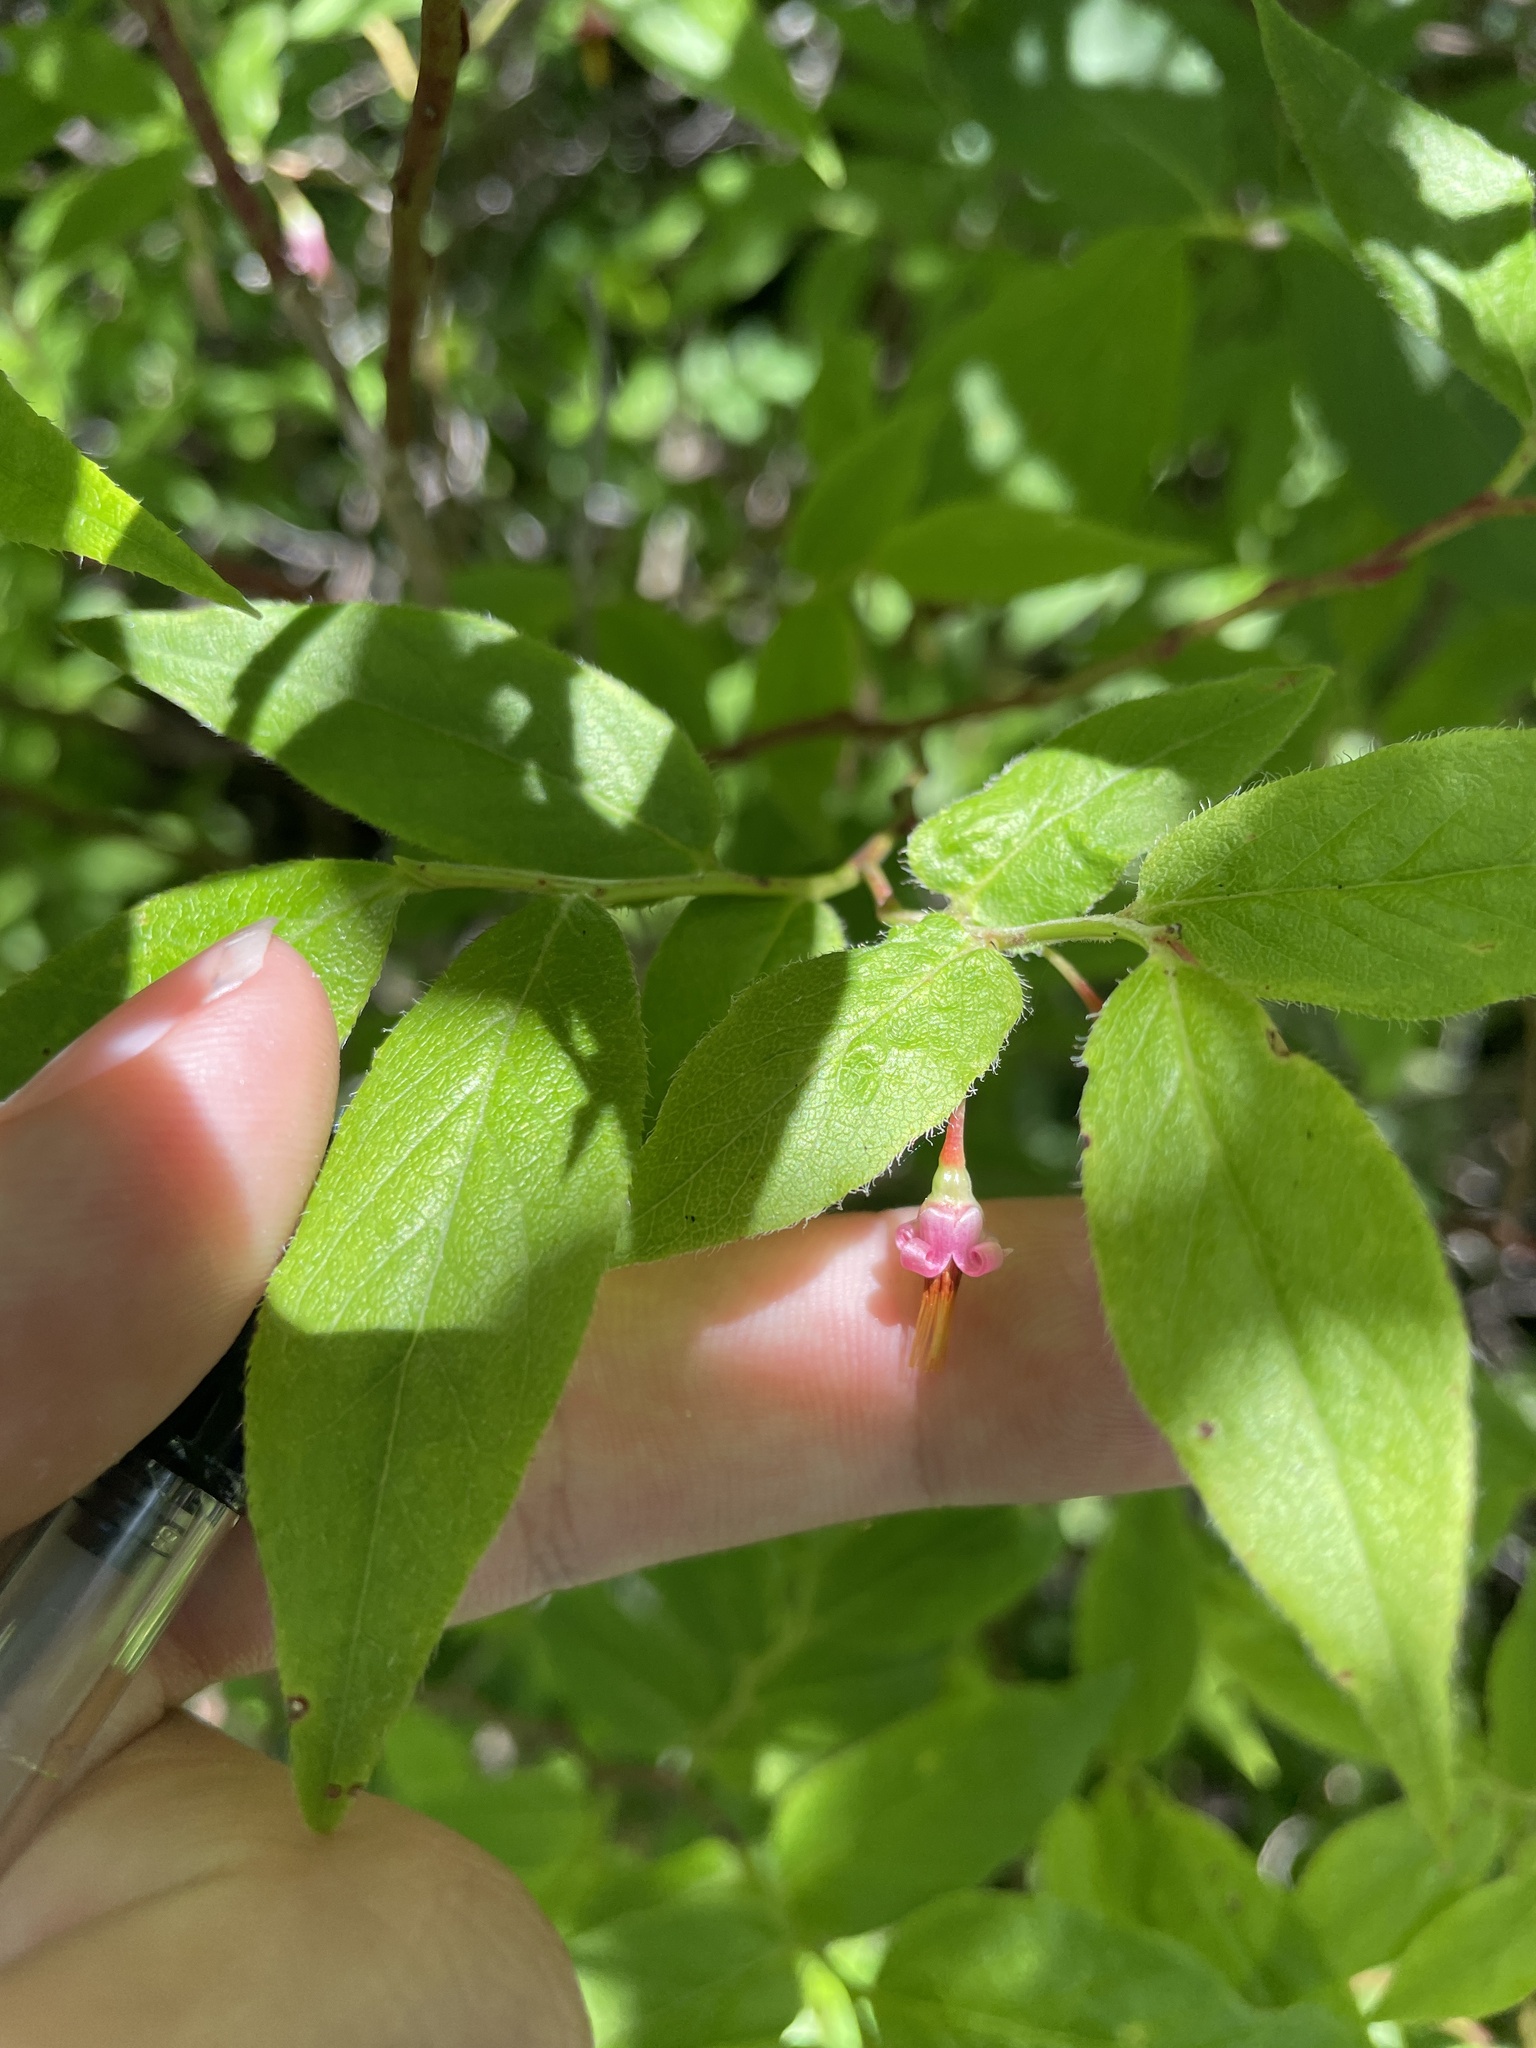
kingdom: Plantae
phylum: Tracheophyta
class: Magnoliopsida
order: Ericales
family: Ericaceae
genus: Vaccinium
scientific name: Vaccinium erythrocarpum
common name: Bearberry
